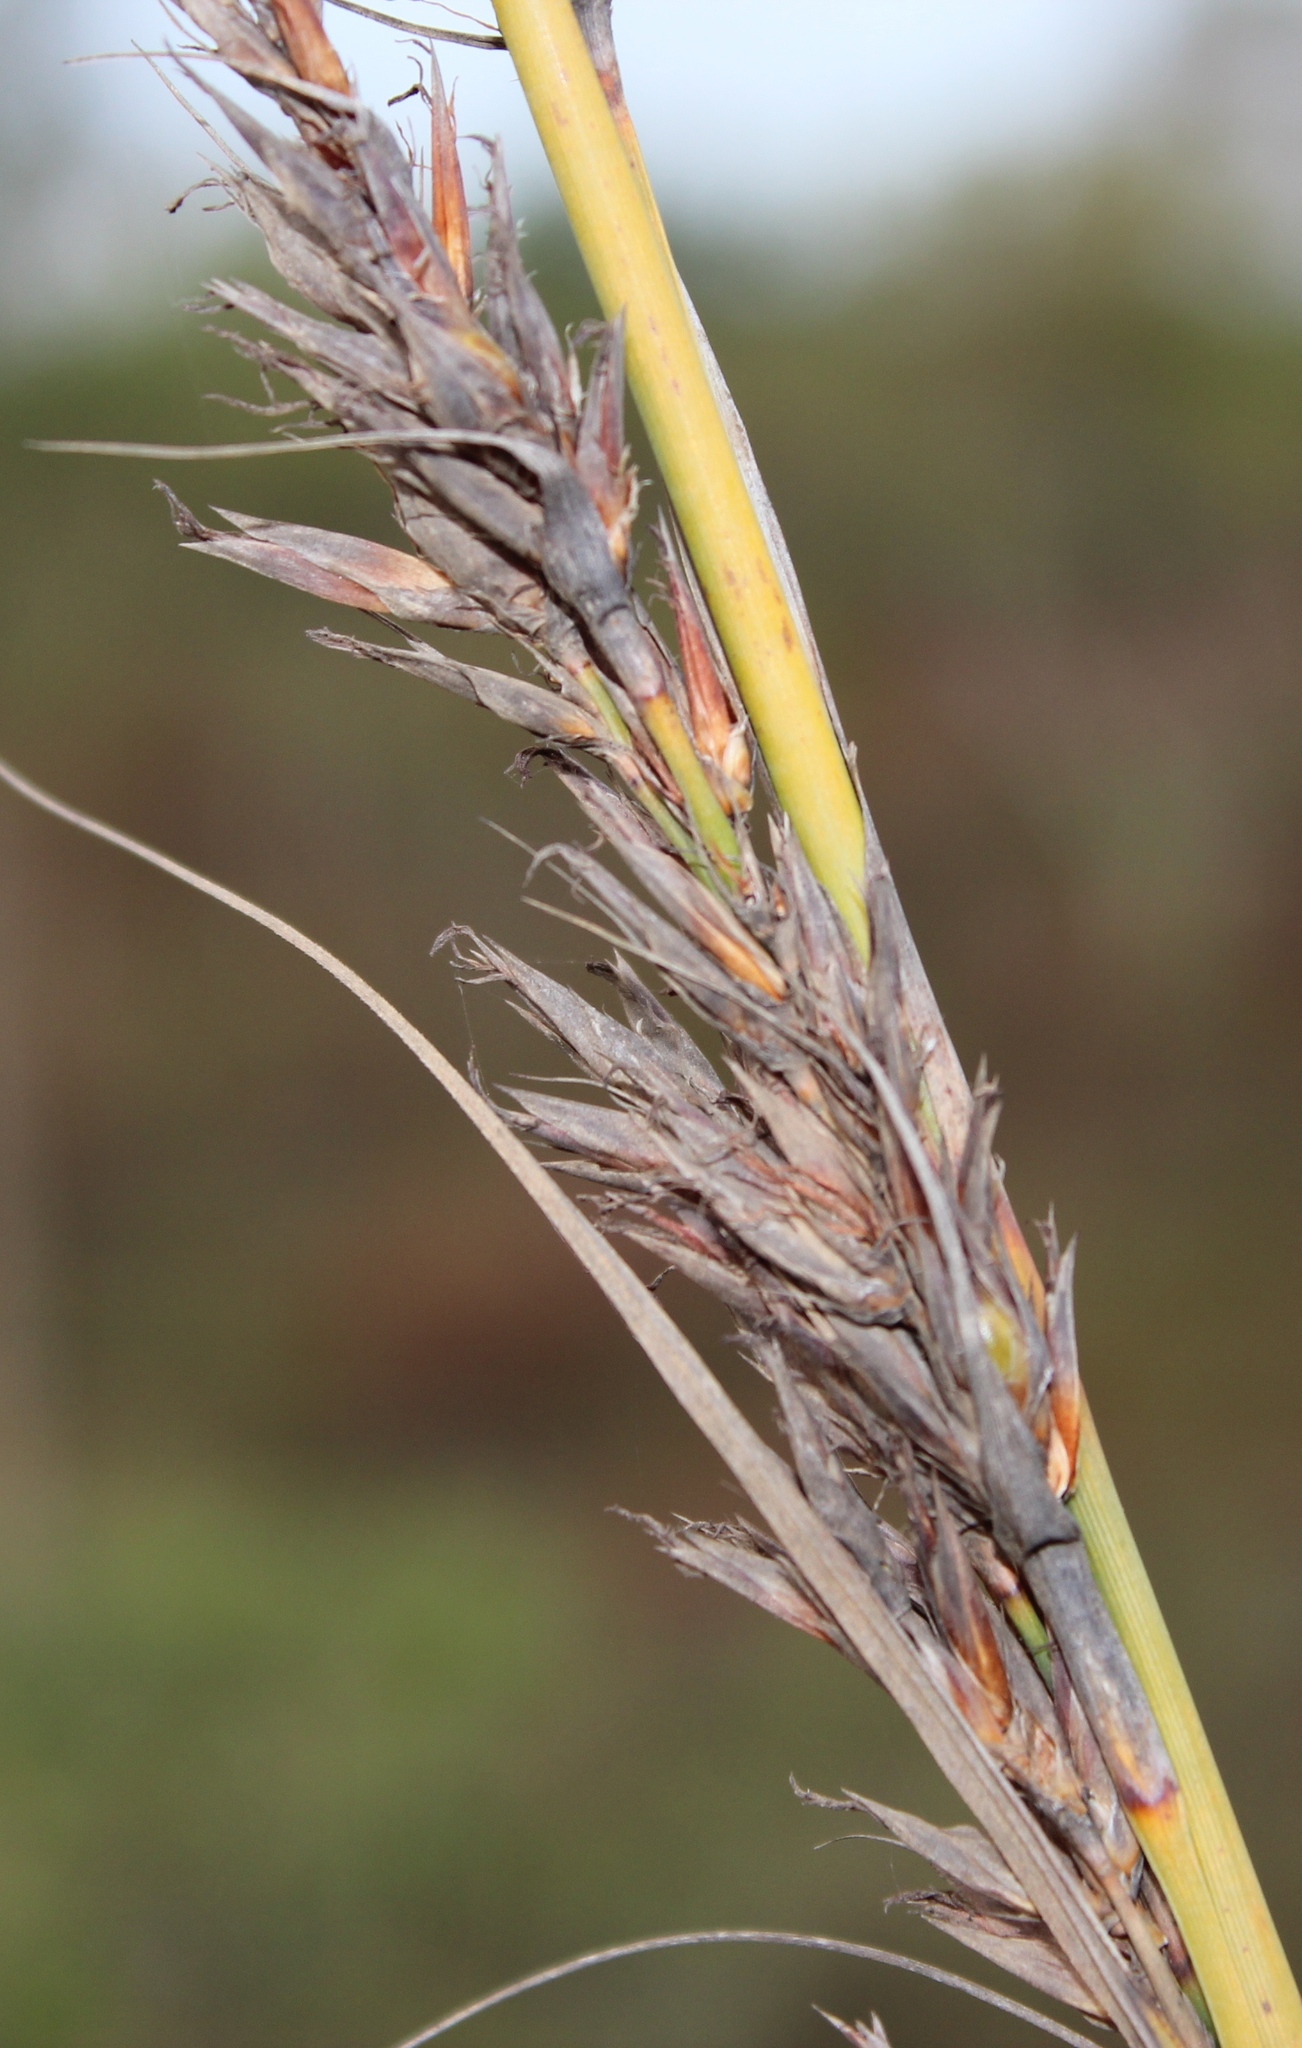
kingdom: Plantae
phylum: Tracheophyta
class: Liliopsida
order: Poales
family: Cyperaceae
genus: Tetraria
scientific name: Tetraria involucrata
